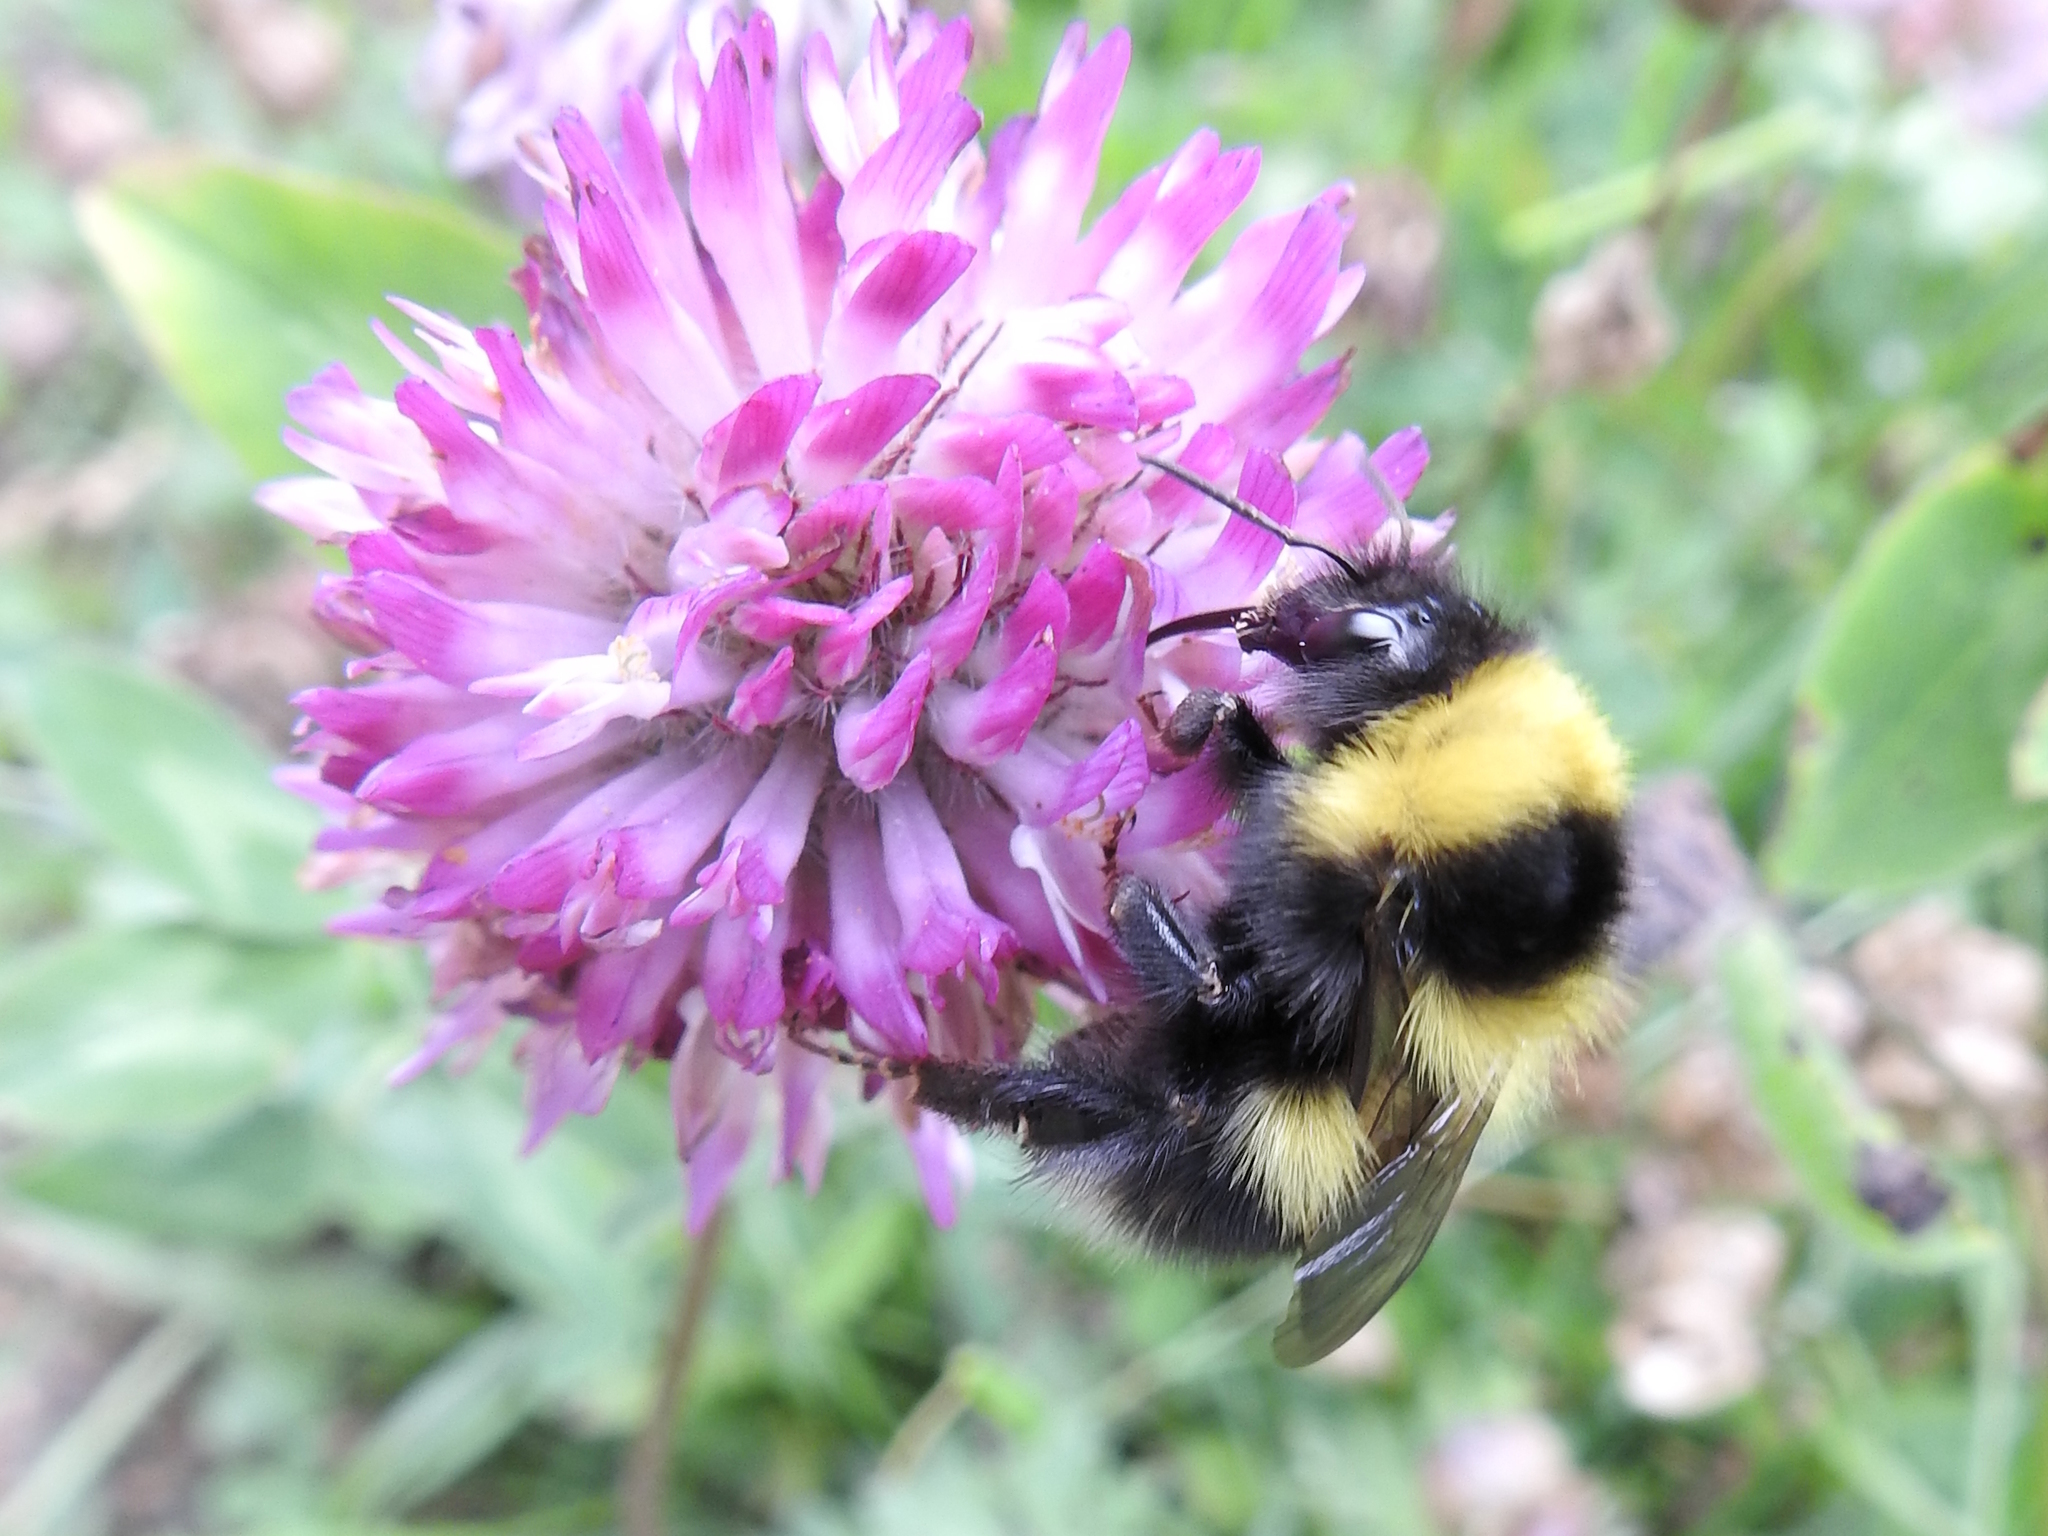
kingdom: Animalia
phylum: Arthropoda
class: Insecta
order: Hymenoptera
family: Apidae
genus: Bombus
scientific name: Bombus hortorum
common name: Garden bumblebee
